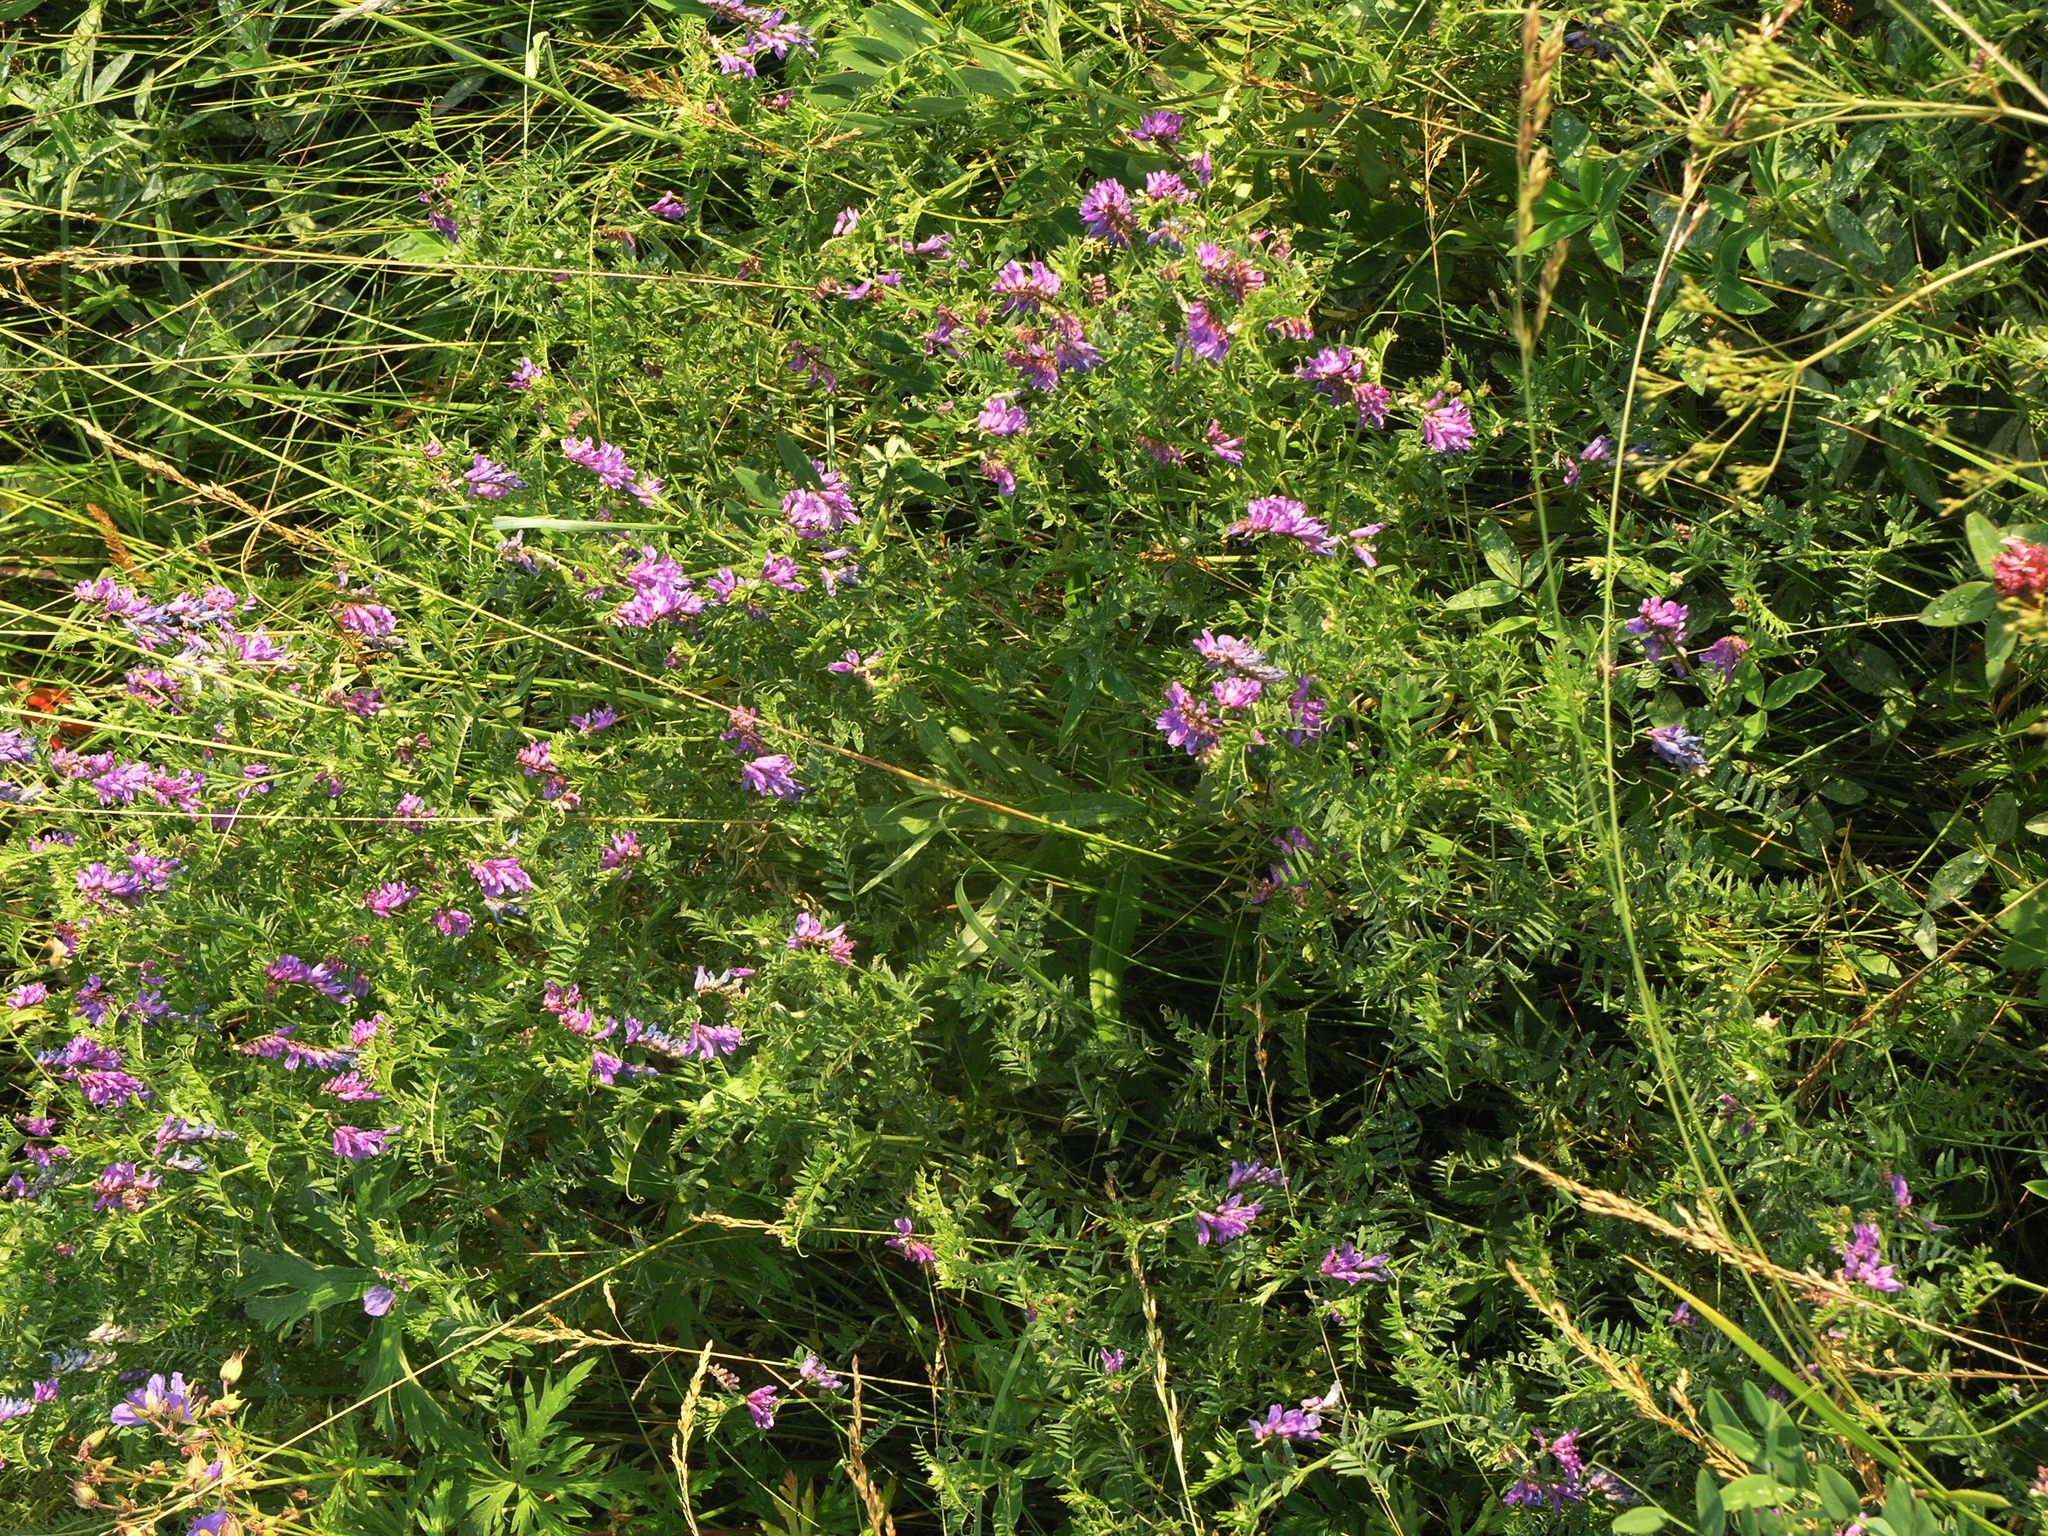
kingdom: Plantae
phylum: Tracheophyta
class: Magnoliopsida
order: Fabales
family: Fabaceae
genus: Vicia
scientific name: Vicia cracca
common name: Bird vetch
